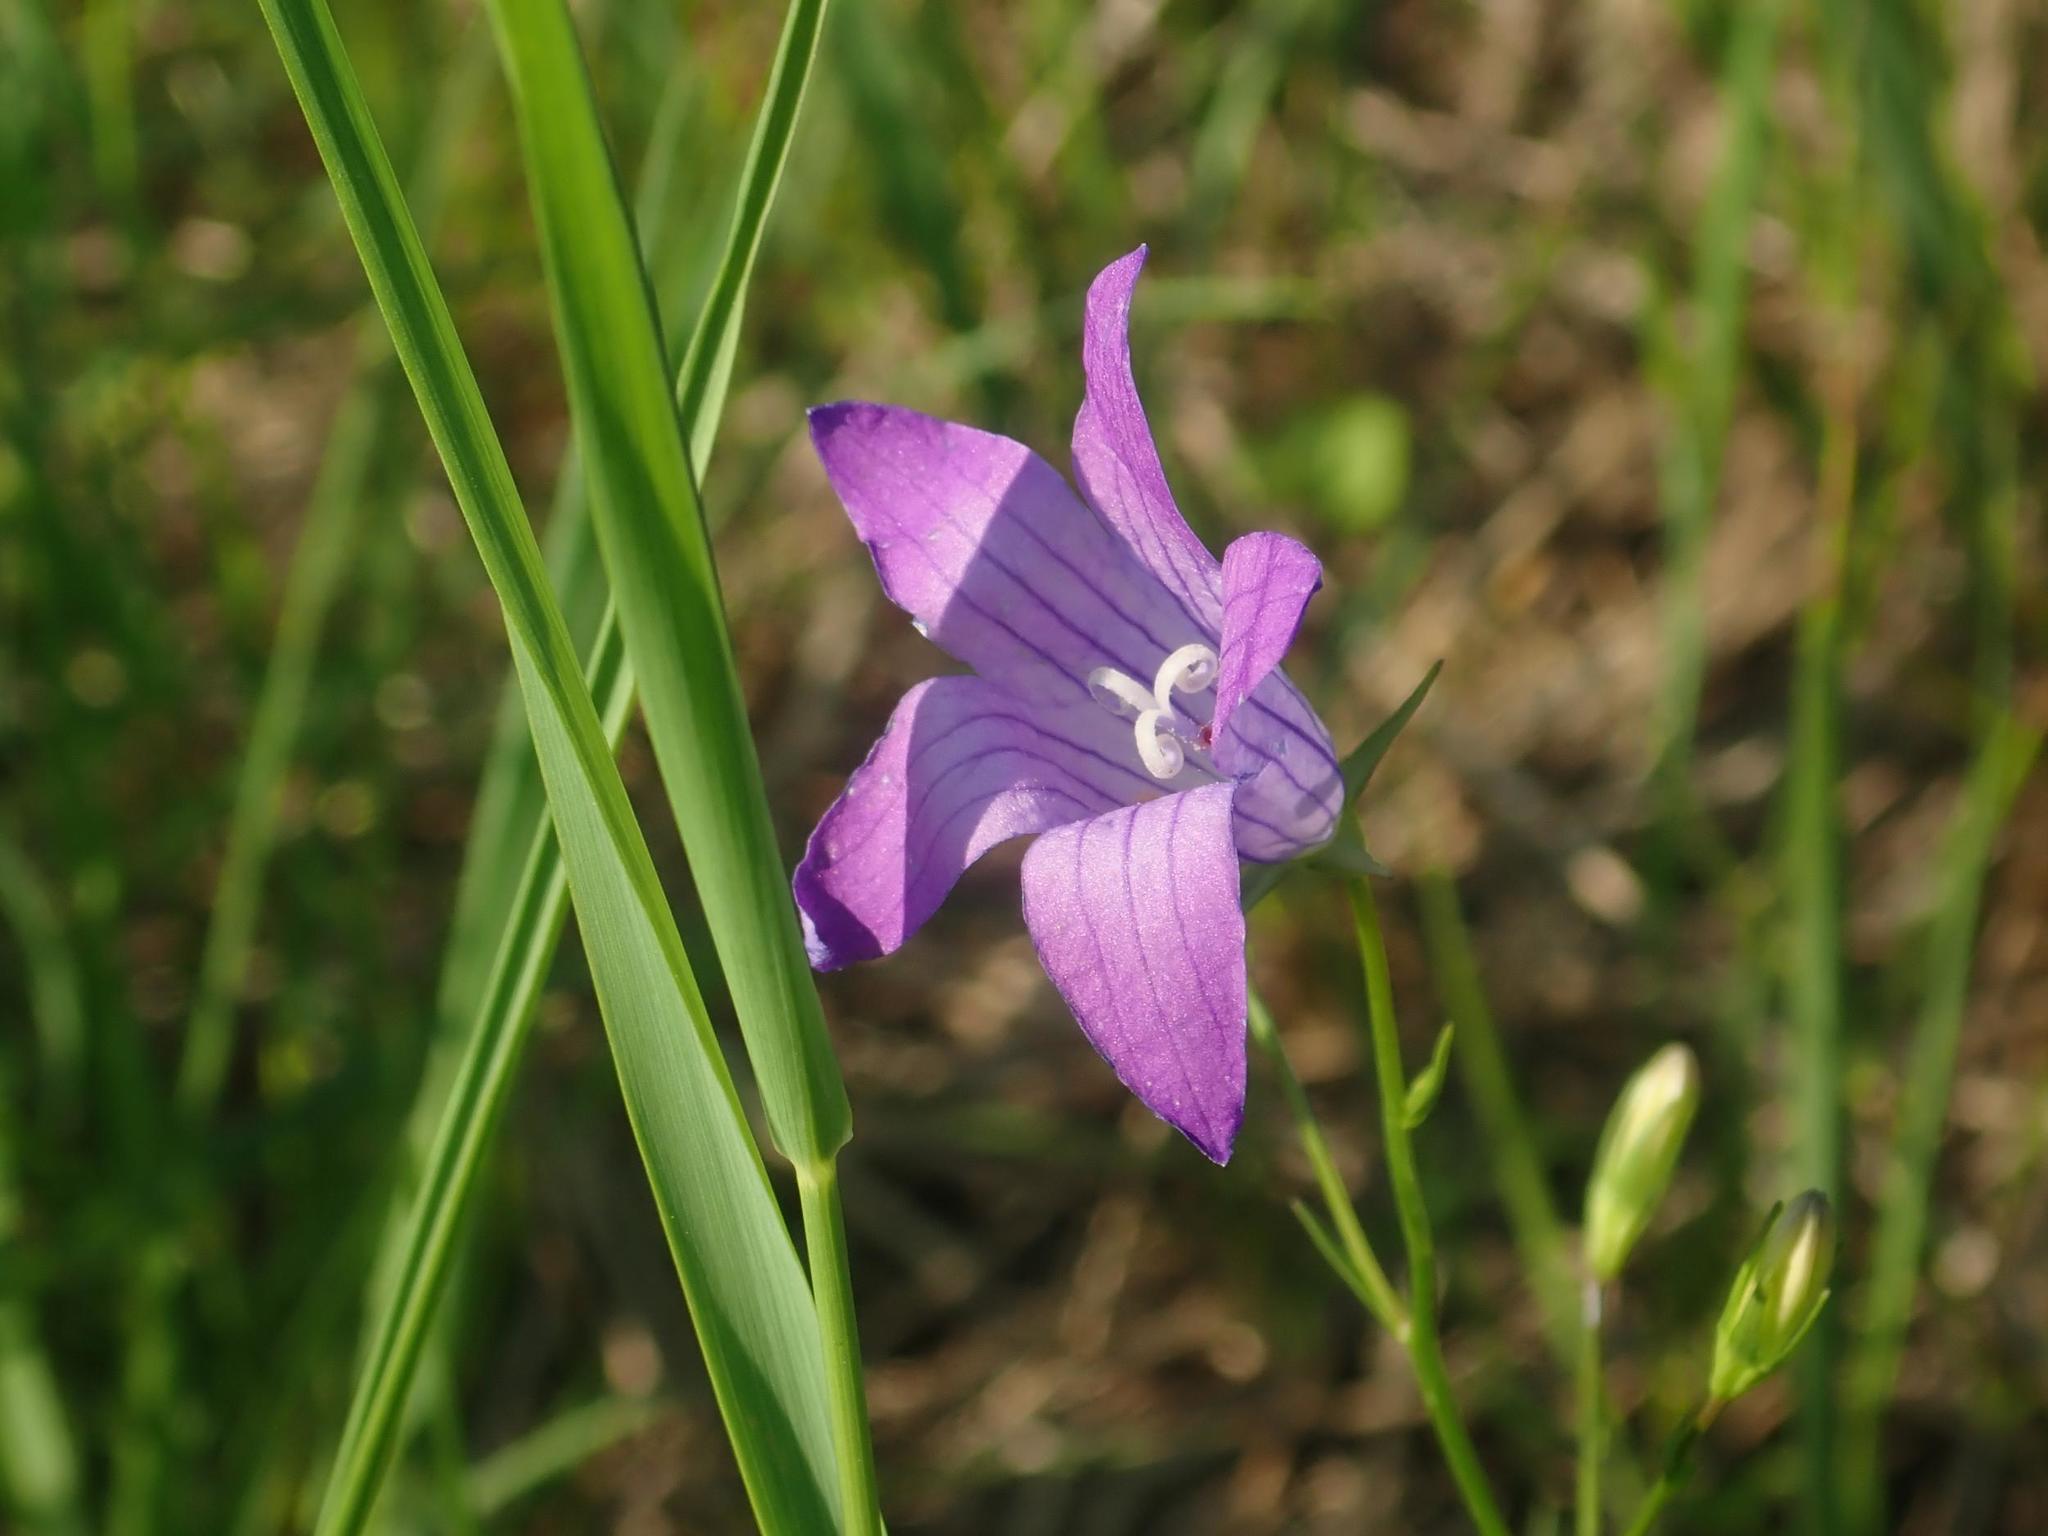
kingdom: Plantae
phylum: Tracheophyta
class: Magnoliopsida
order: Asterales
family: Campanulaceae
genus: Campanula
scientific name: Campanula patula
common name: Spreading bellflower
